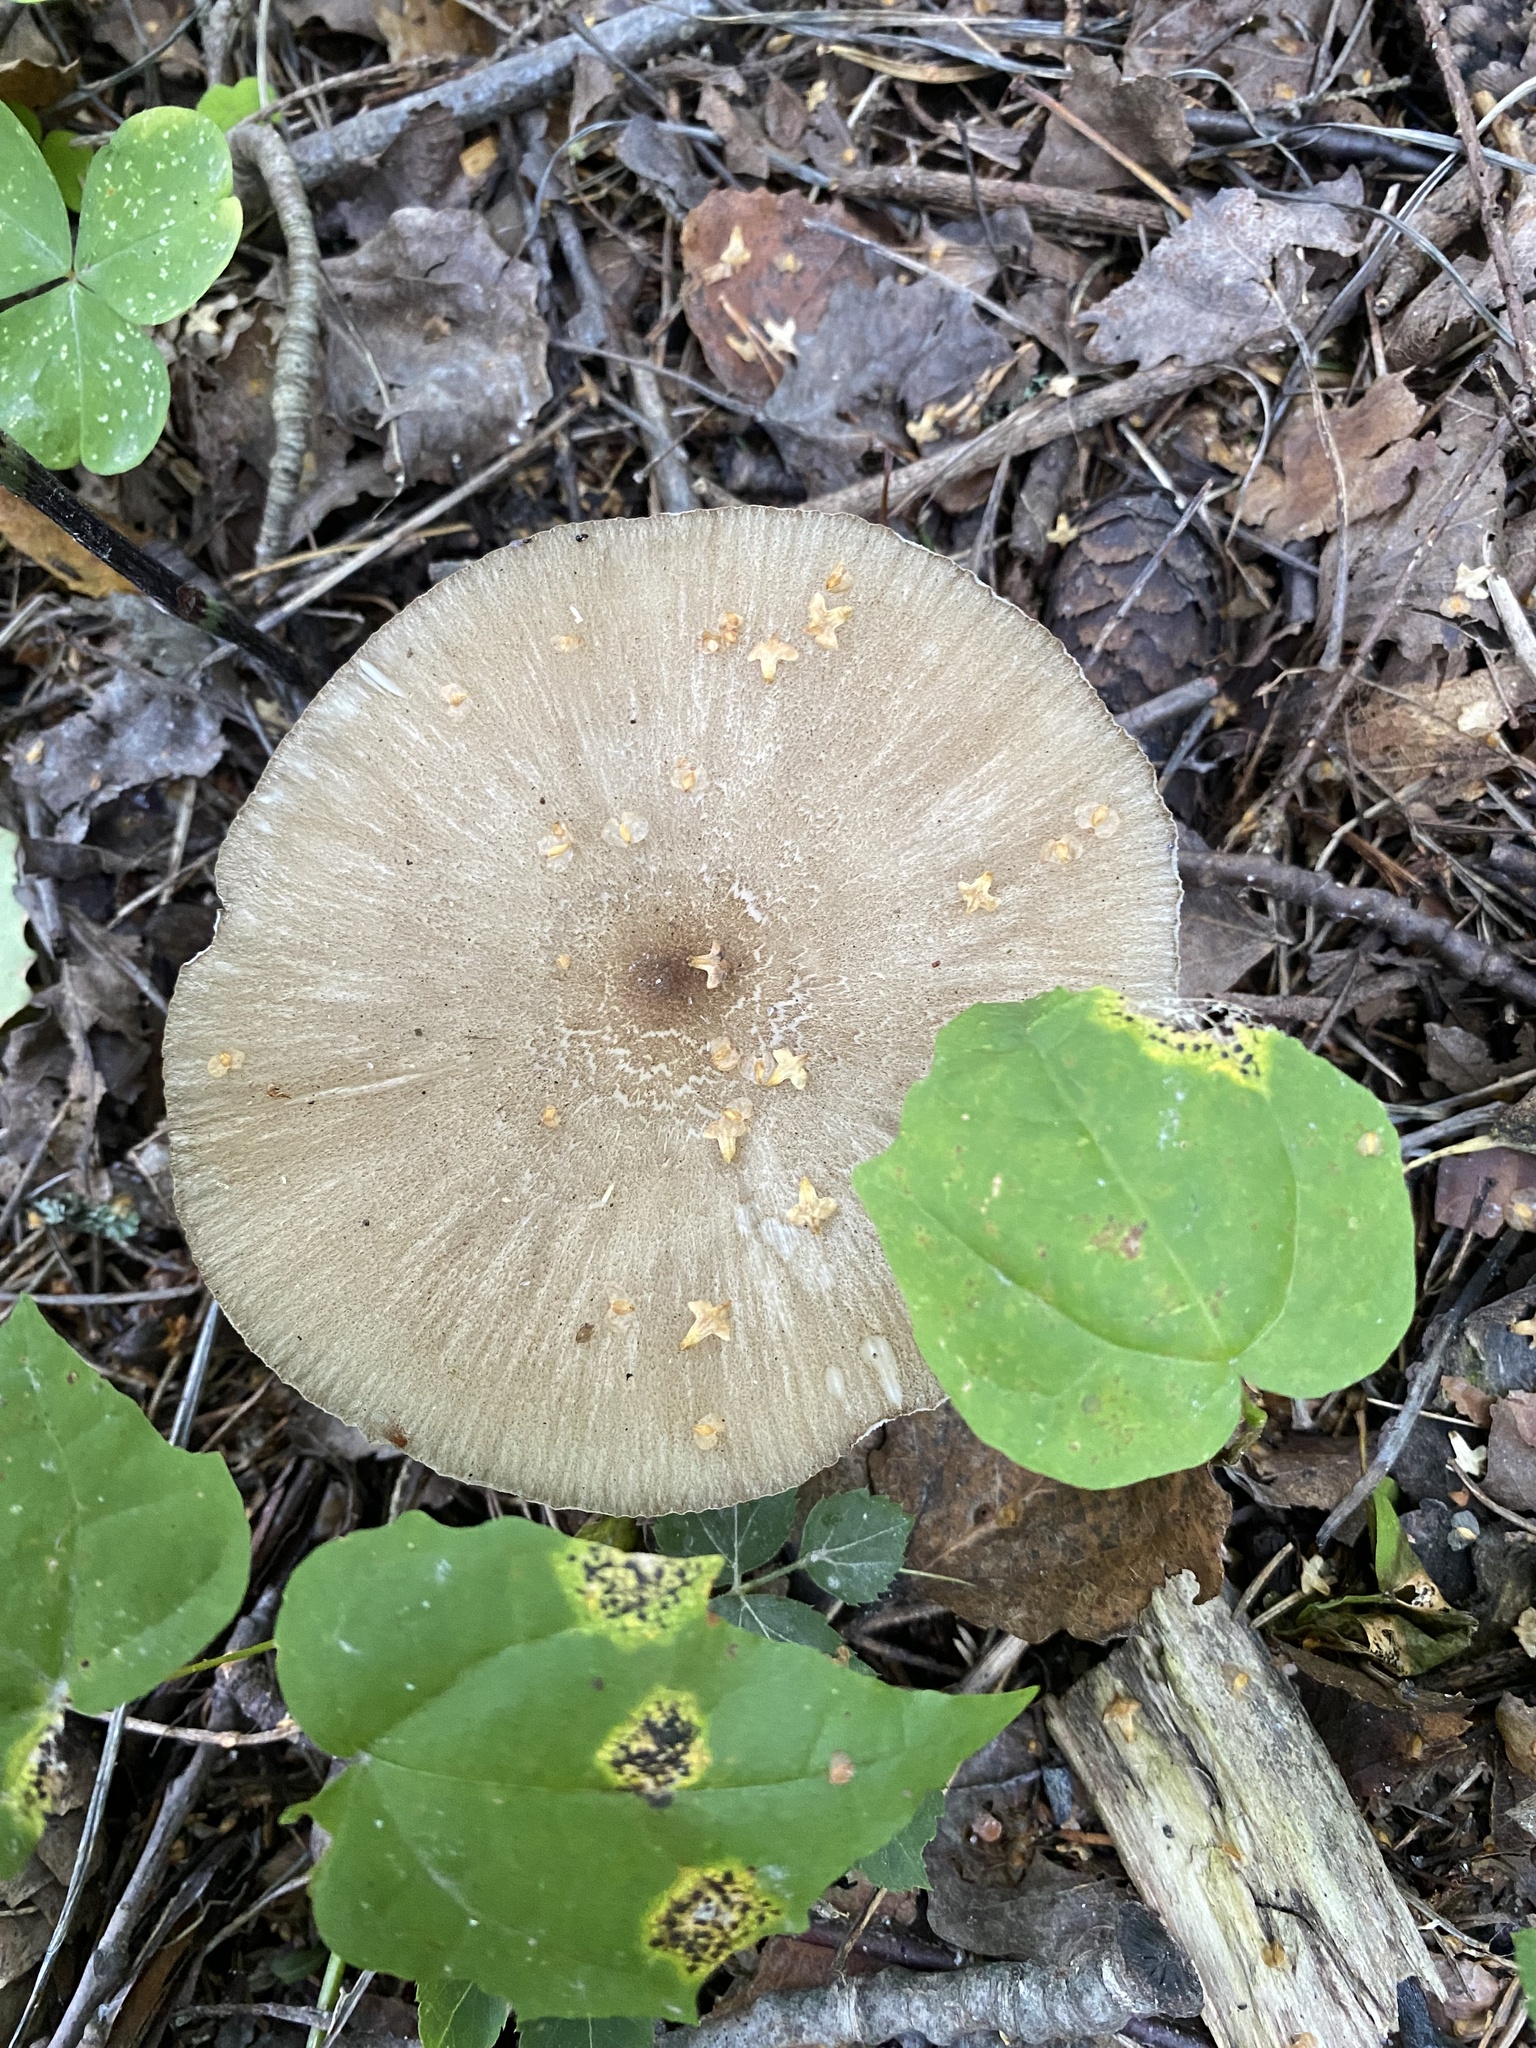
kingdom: Fungi
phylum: Basidiomycota
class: Agaricomycetes
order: Agaricales
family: Tricholomataceae
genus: Megacollybia
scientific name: Megacollybia platyphylla
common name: Whitelaced shank
